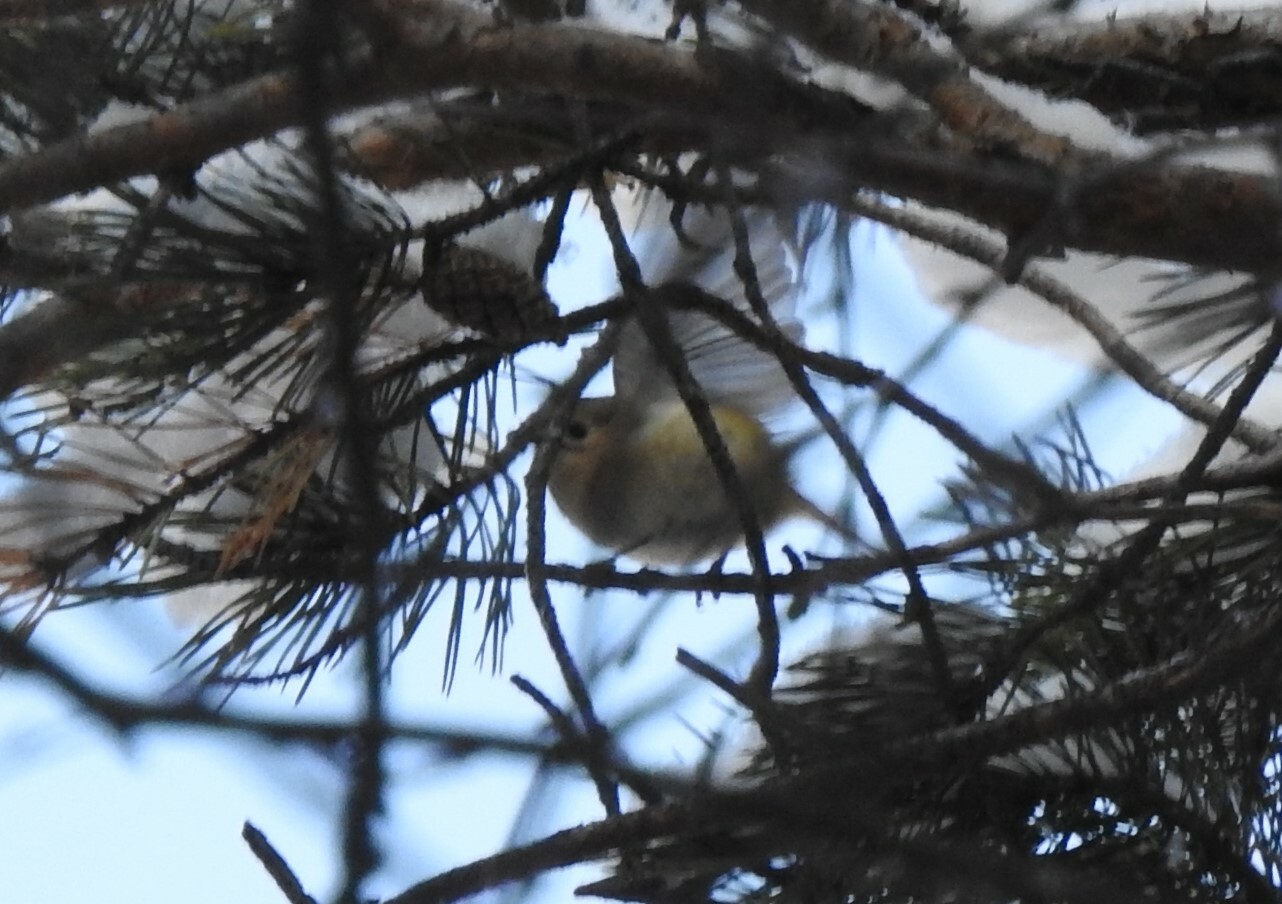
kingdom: Animalia
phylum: Chordata
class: Aves
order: Passeriformes
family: Regulidae
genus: Regulus
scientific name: Regulus regulus
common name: Goldcrest
